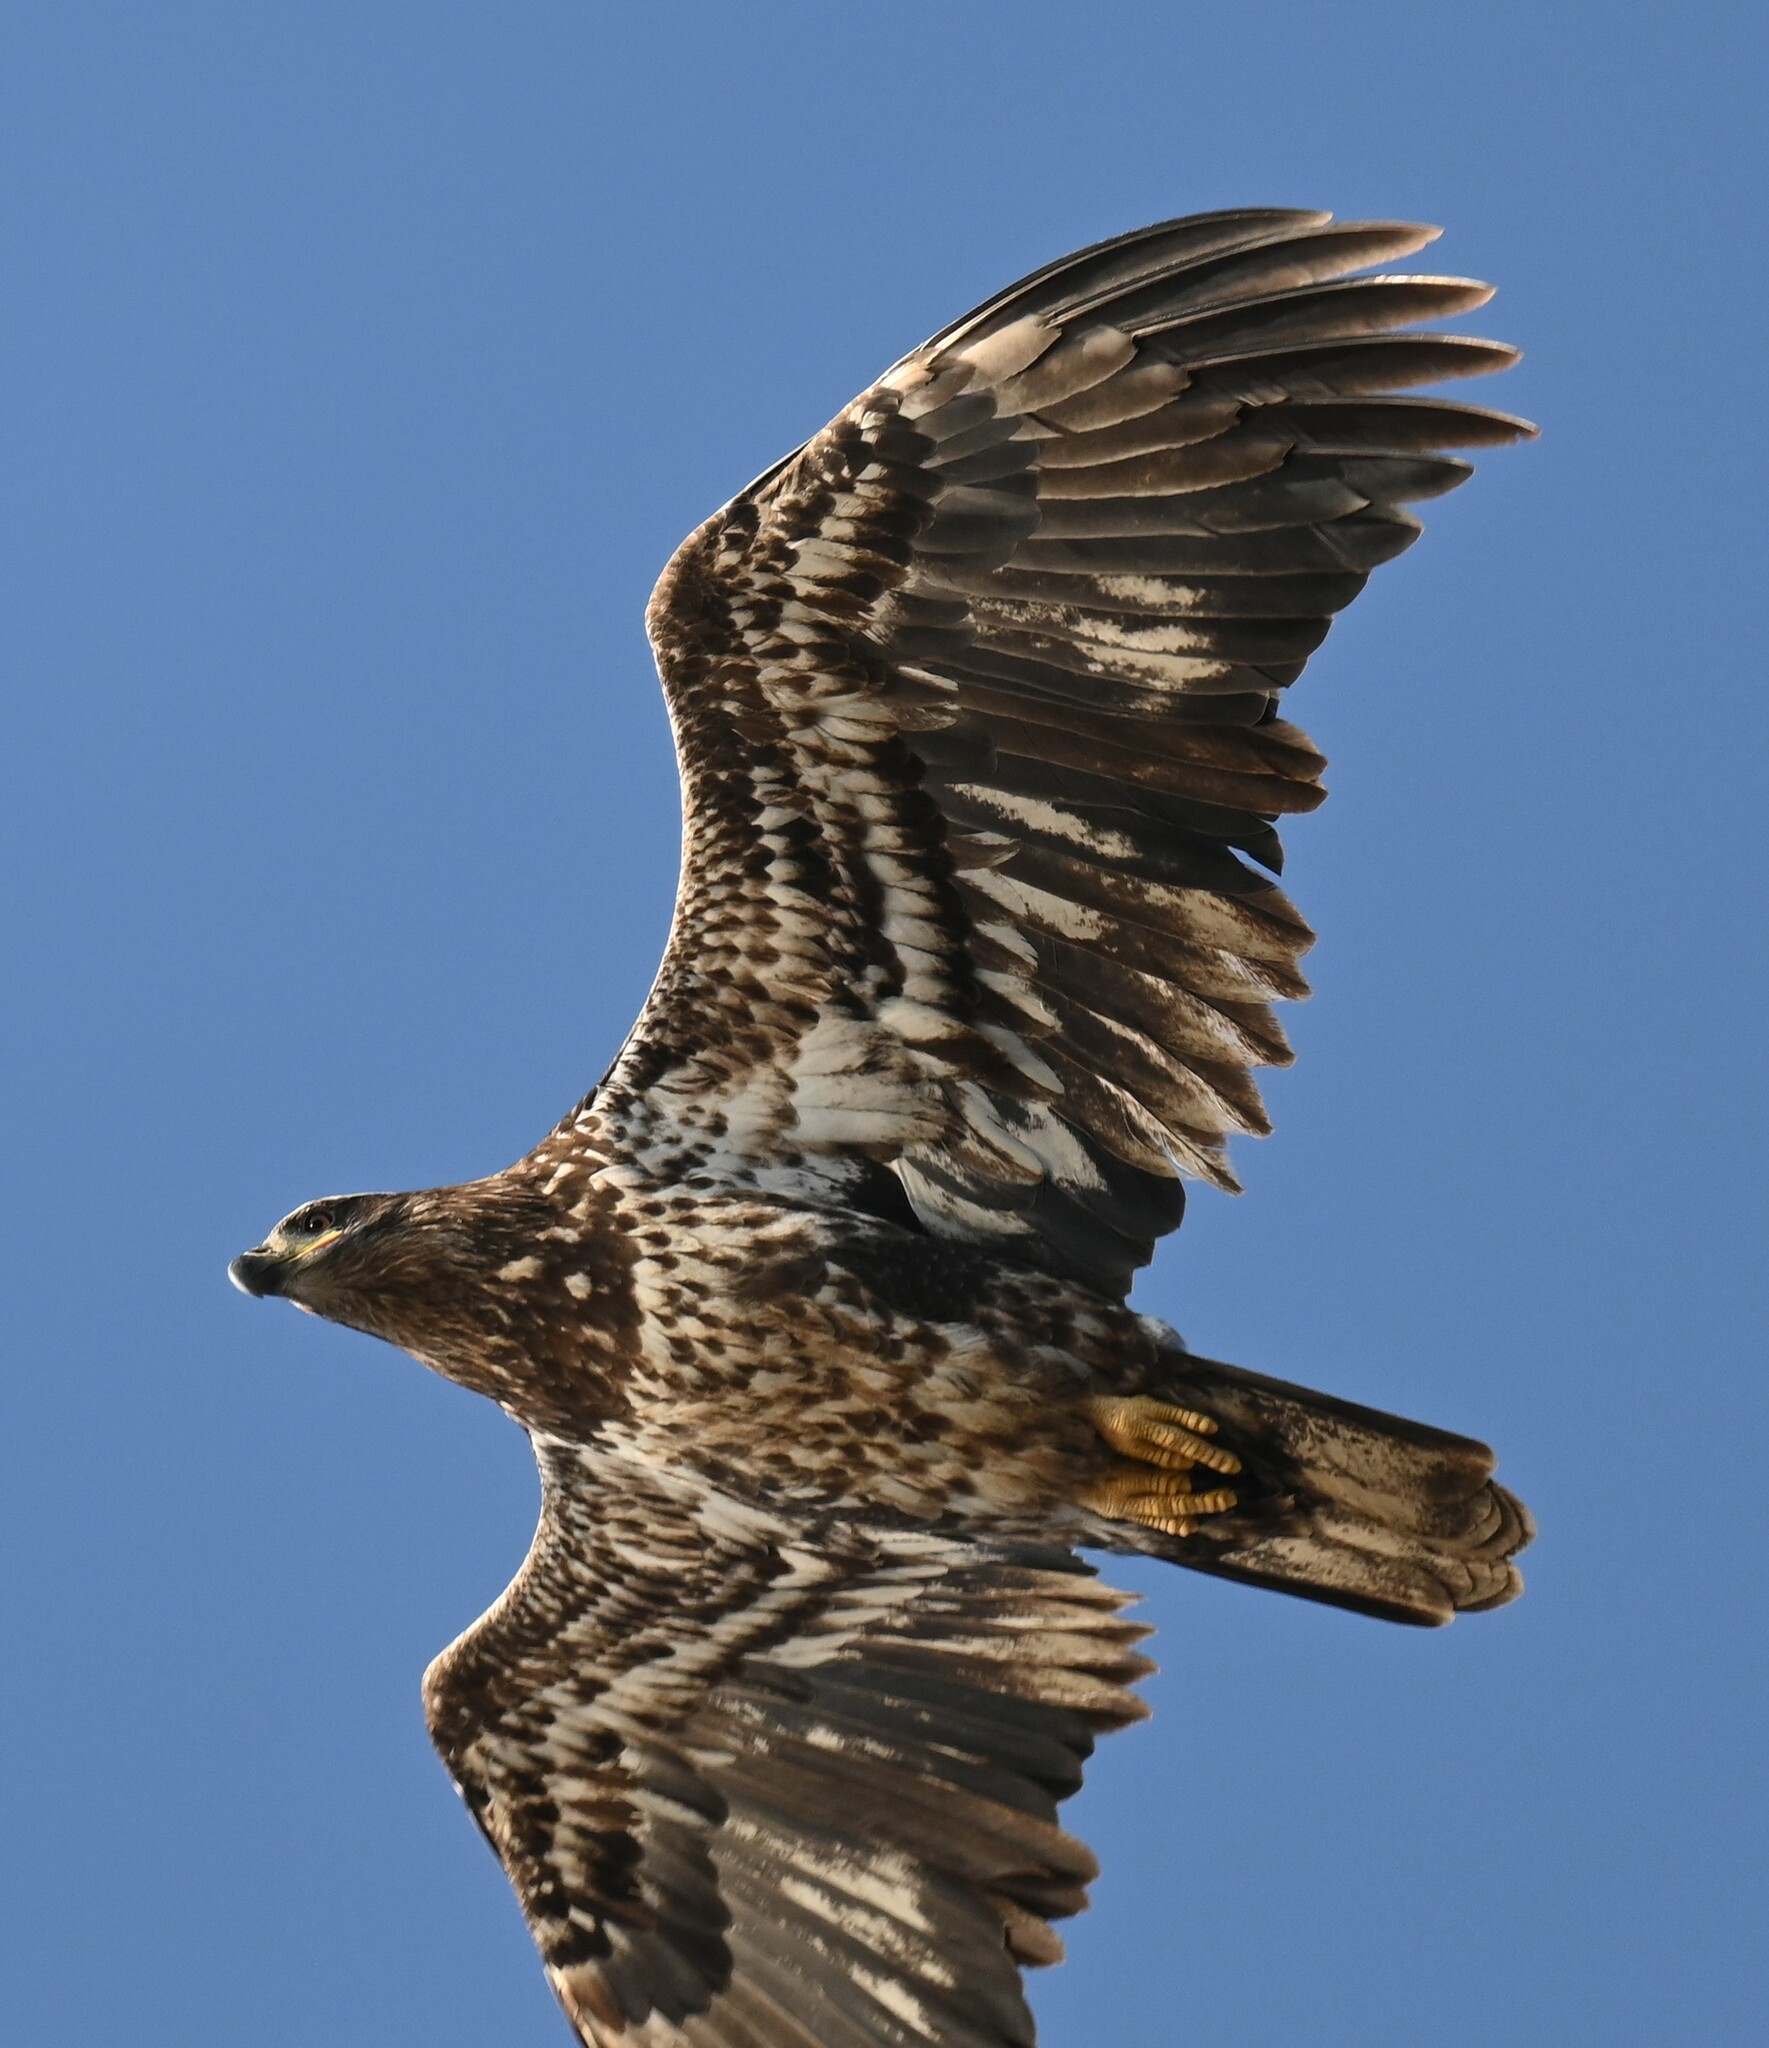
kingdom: Animalia
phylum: Chordata
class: Aves
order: Accipitriformes
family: Accipitridae
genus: Haliaeetus
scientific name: Haliaeetus leucocephalus
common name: Bald eagle
